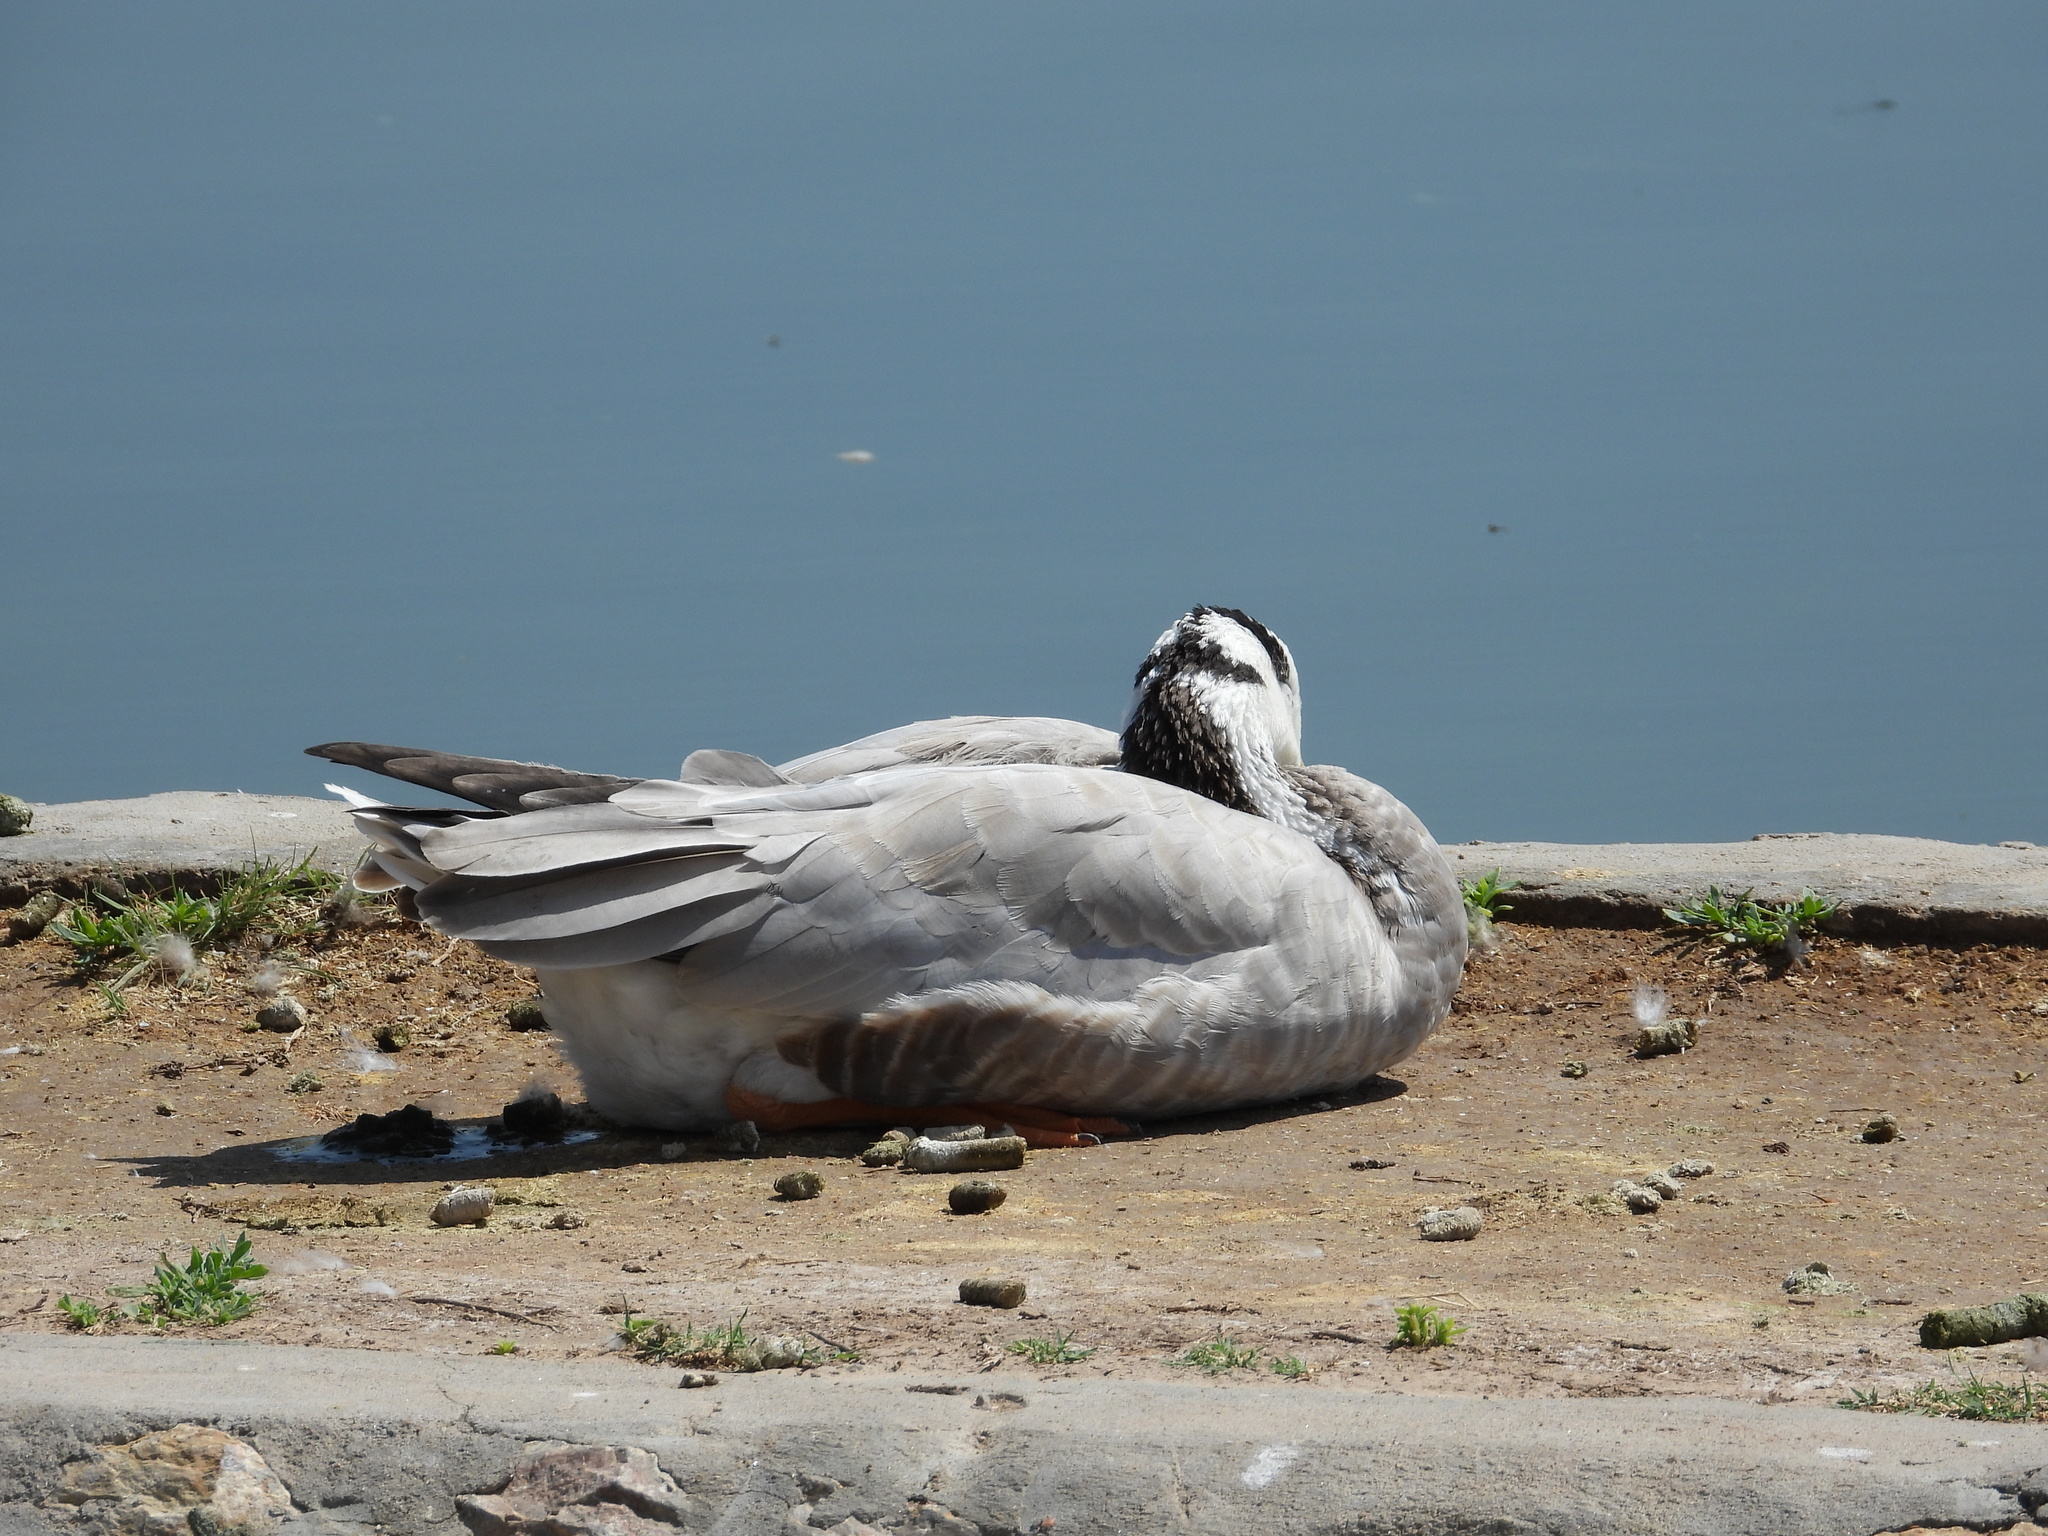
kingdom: Animalia
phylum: Chordata
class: Aves
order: Anseriformes
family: Anatidae
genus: Anser
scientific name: Anser indicus
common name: Bar-headed goose
